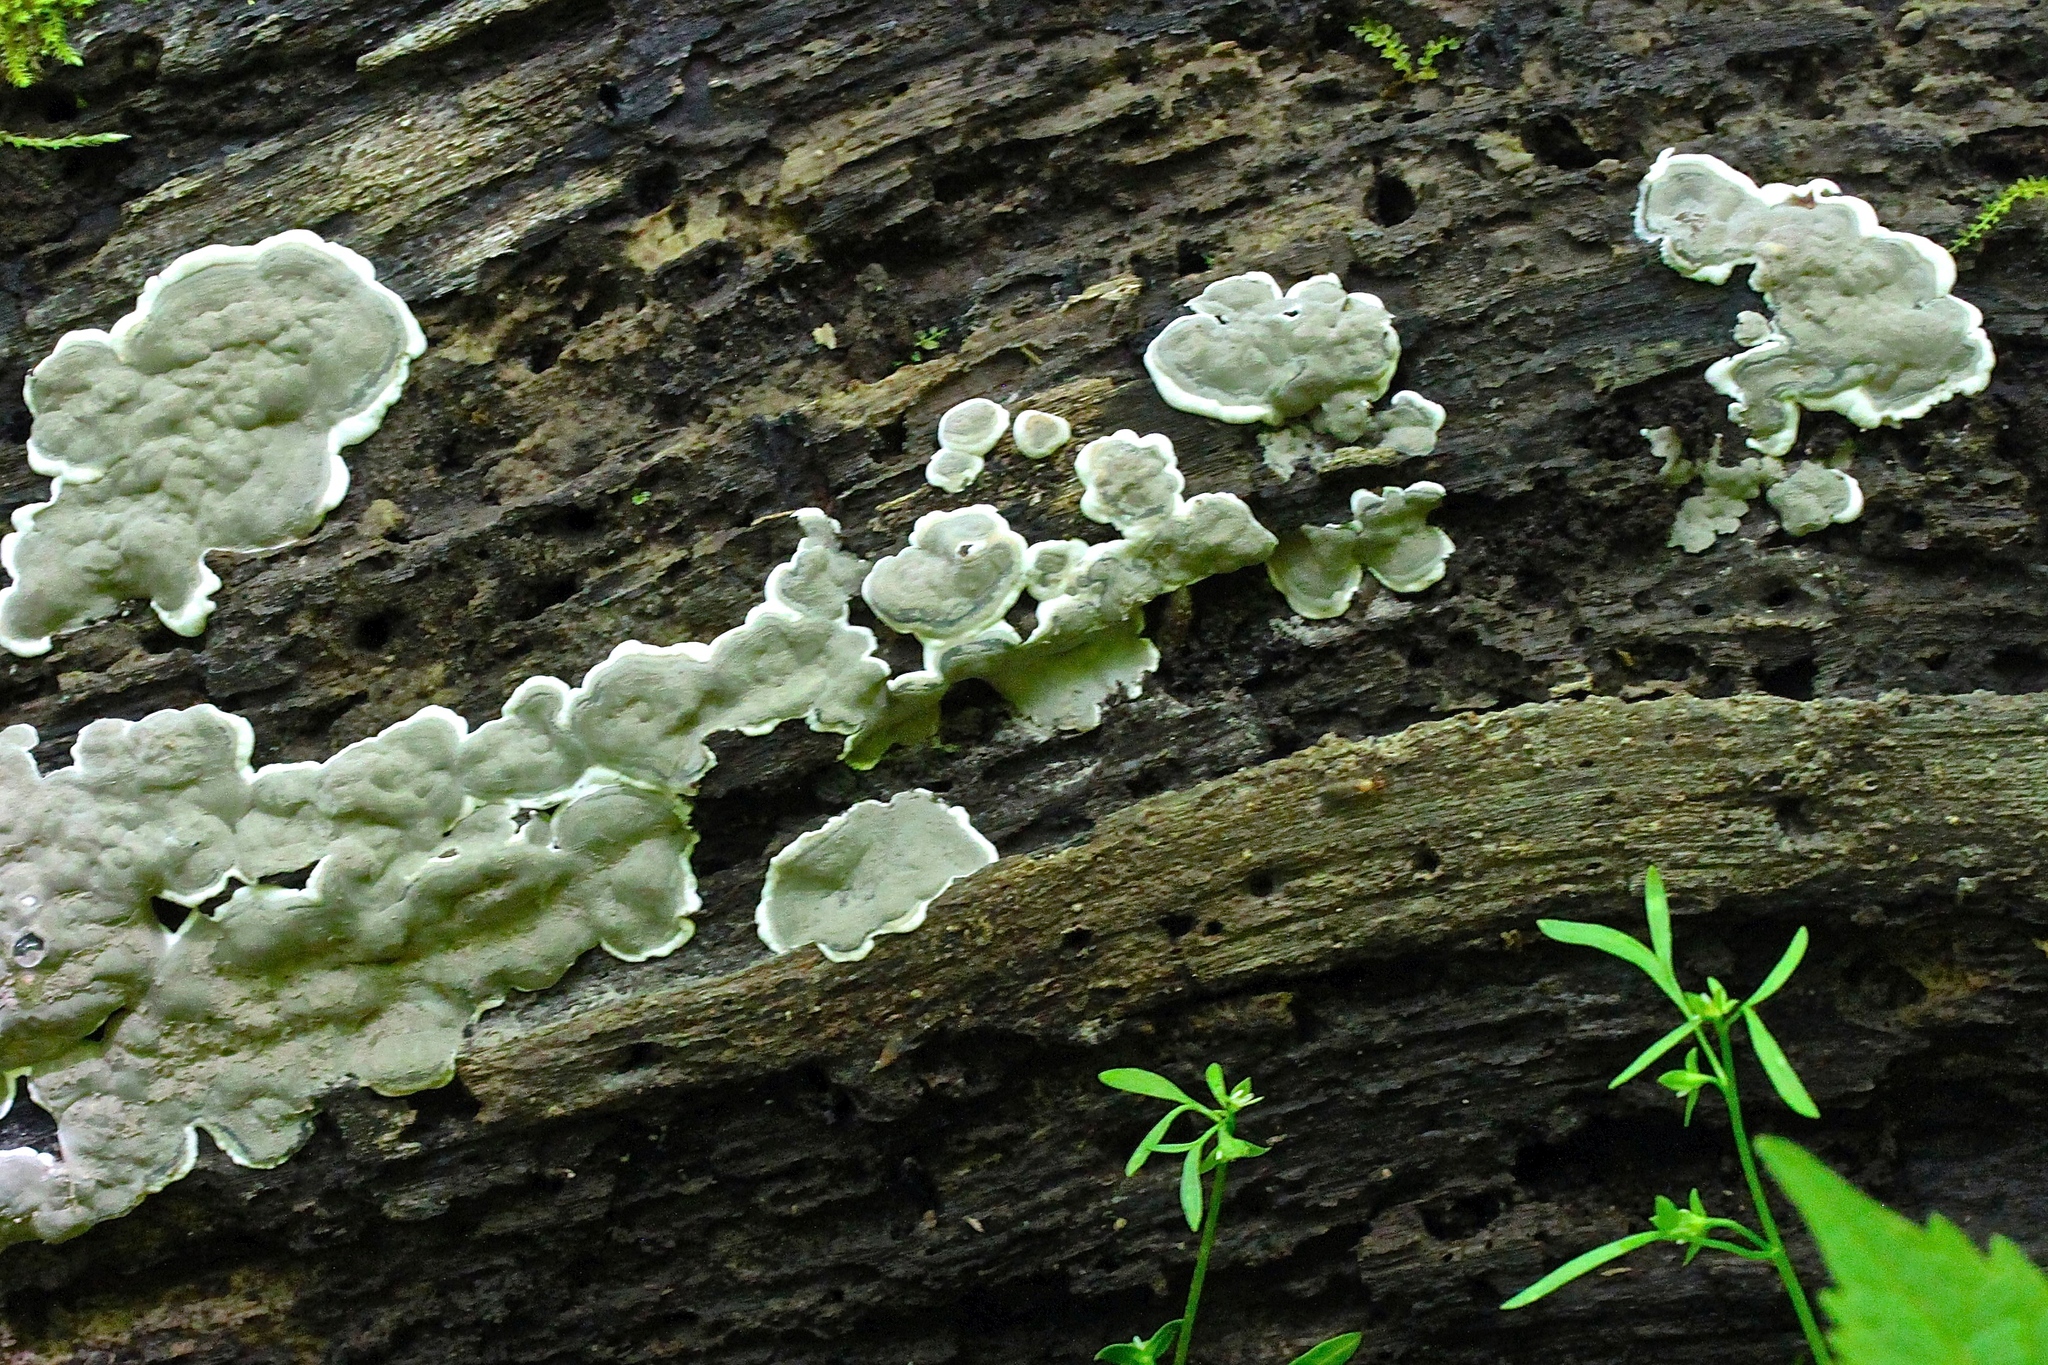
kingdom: Fungi
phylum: Ascomycota
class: Sordariomycetes
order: Xylariales
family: Xylariaceae
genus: Kretzschmaria
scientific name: Kretzschmaria deusta
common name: Brittle cinder
